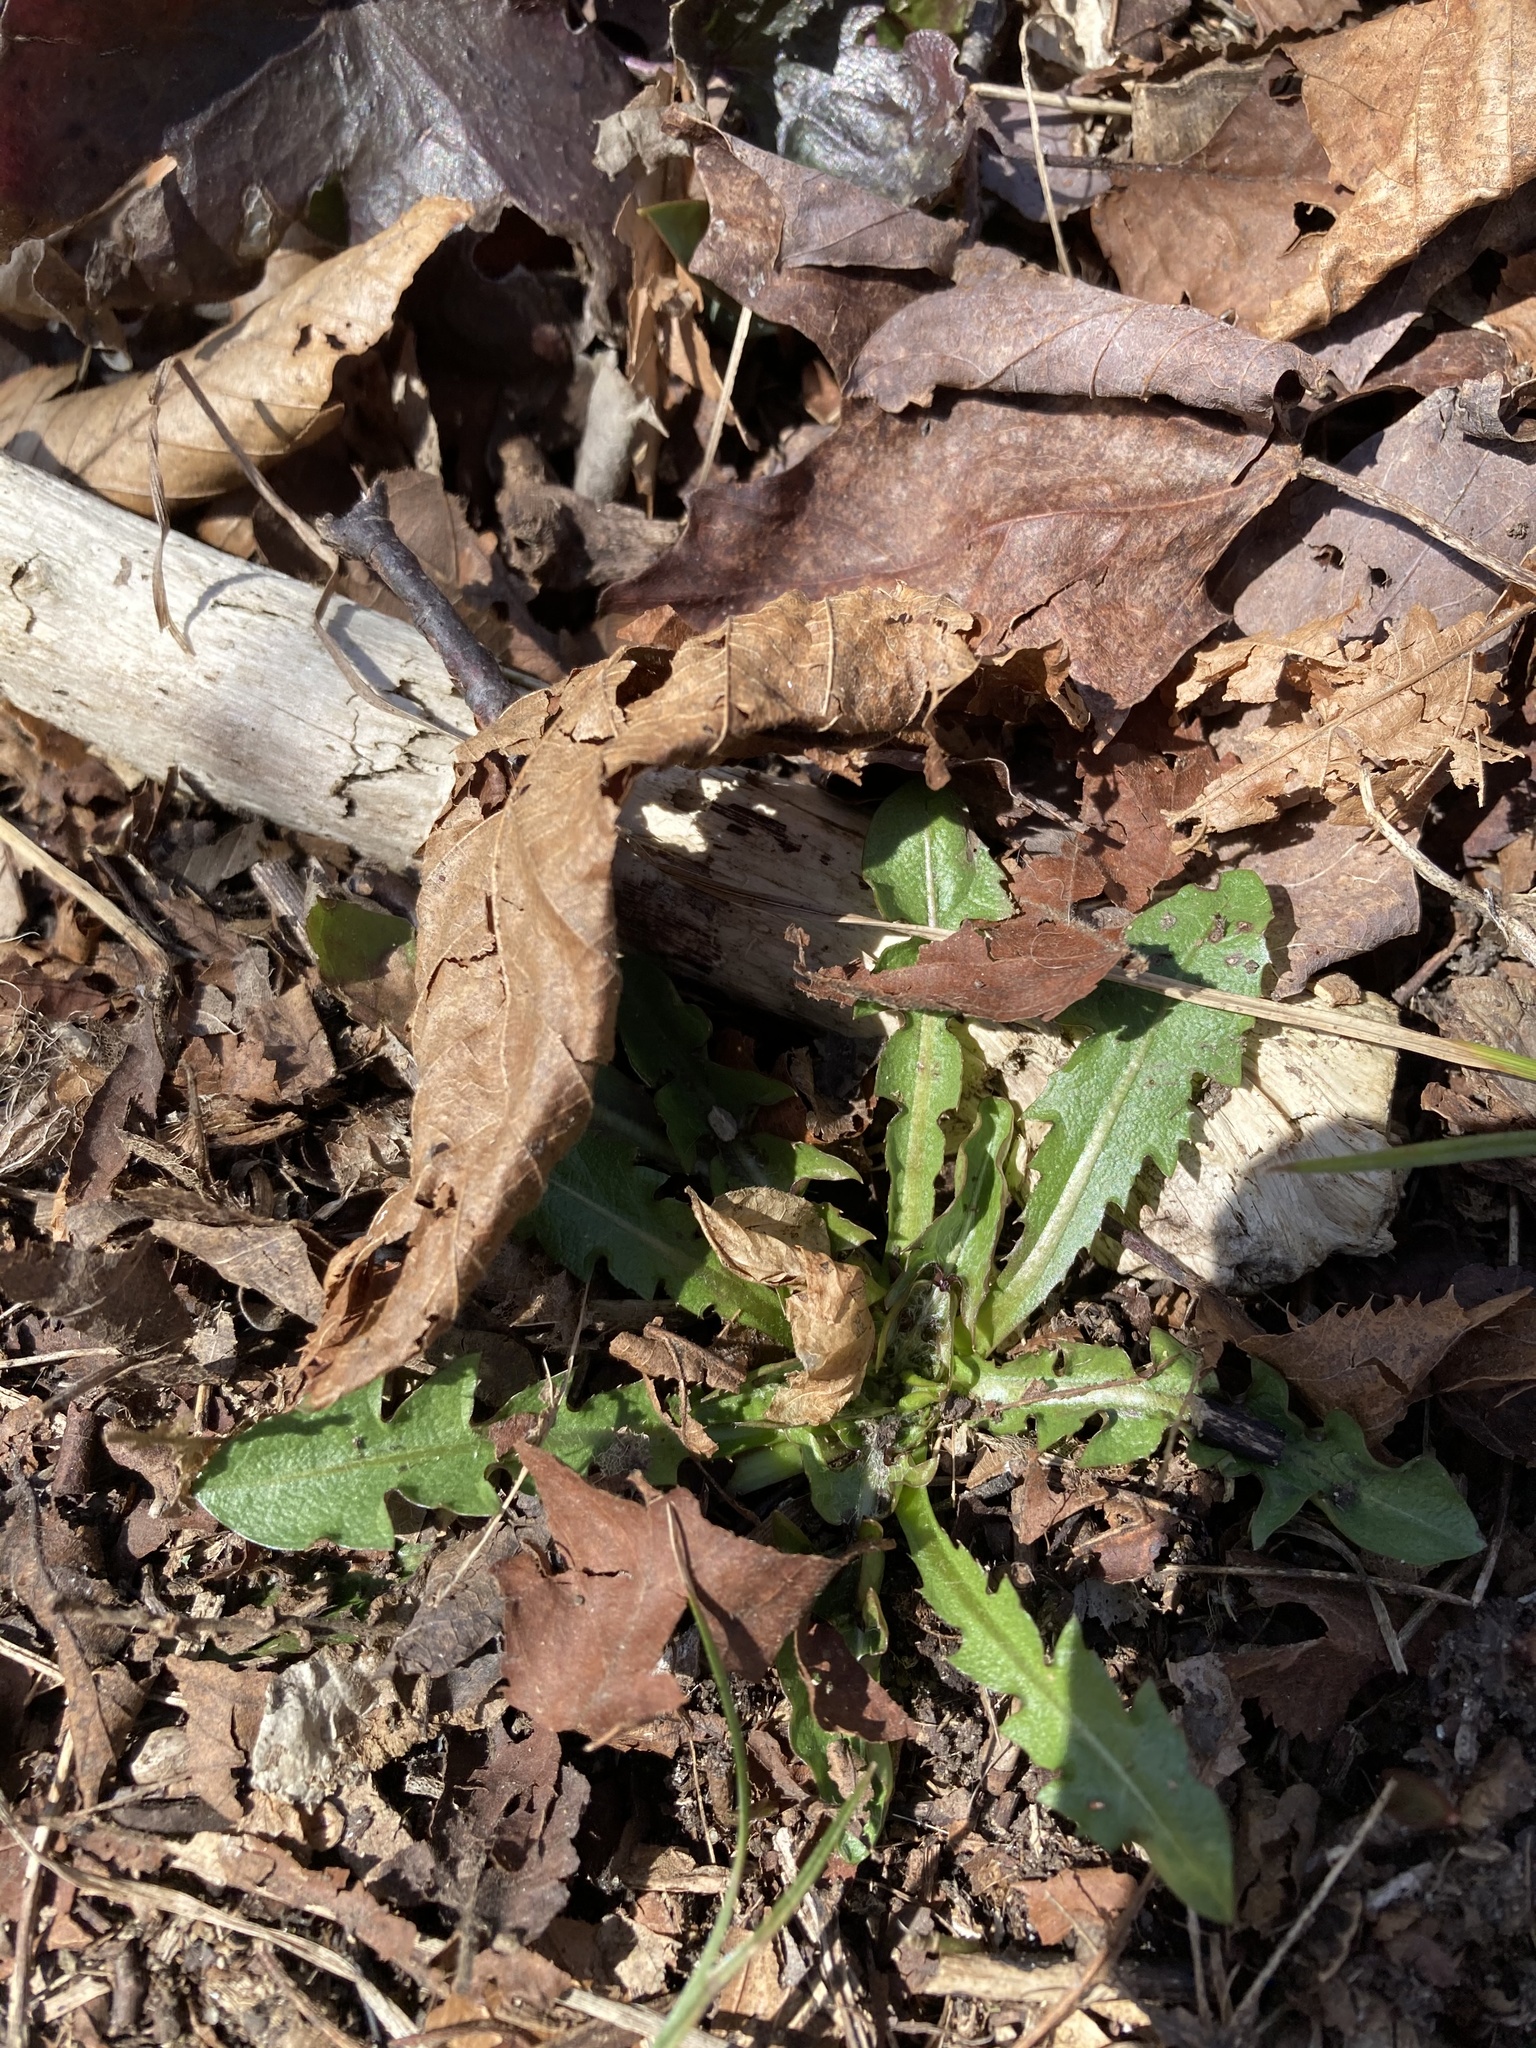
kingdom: Plantae
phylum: Tracheophyta
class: Magnoliopsida
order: Asterales
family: Asteraceae
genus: Taraxacum
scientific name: Taraxacum officinale
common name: Common dandelion
